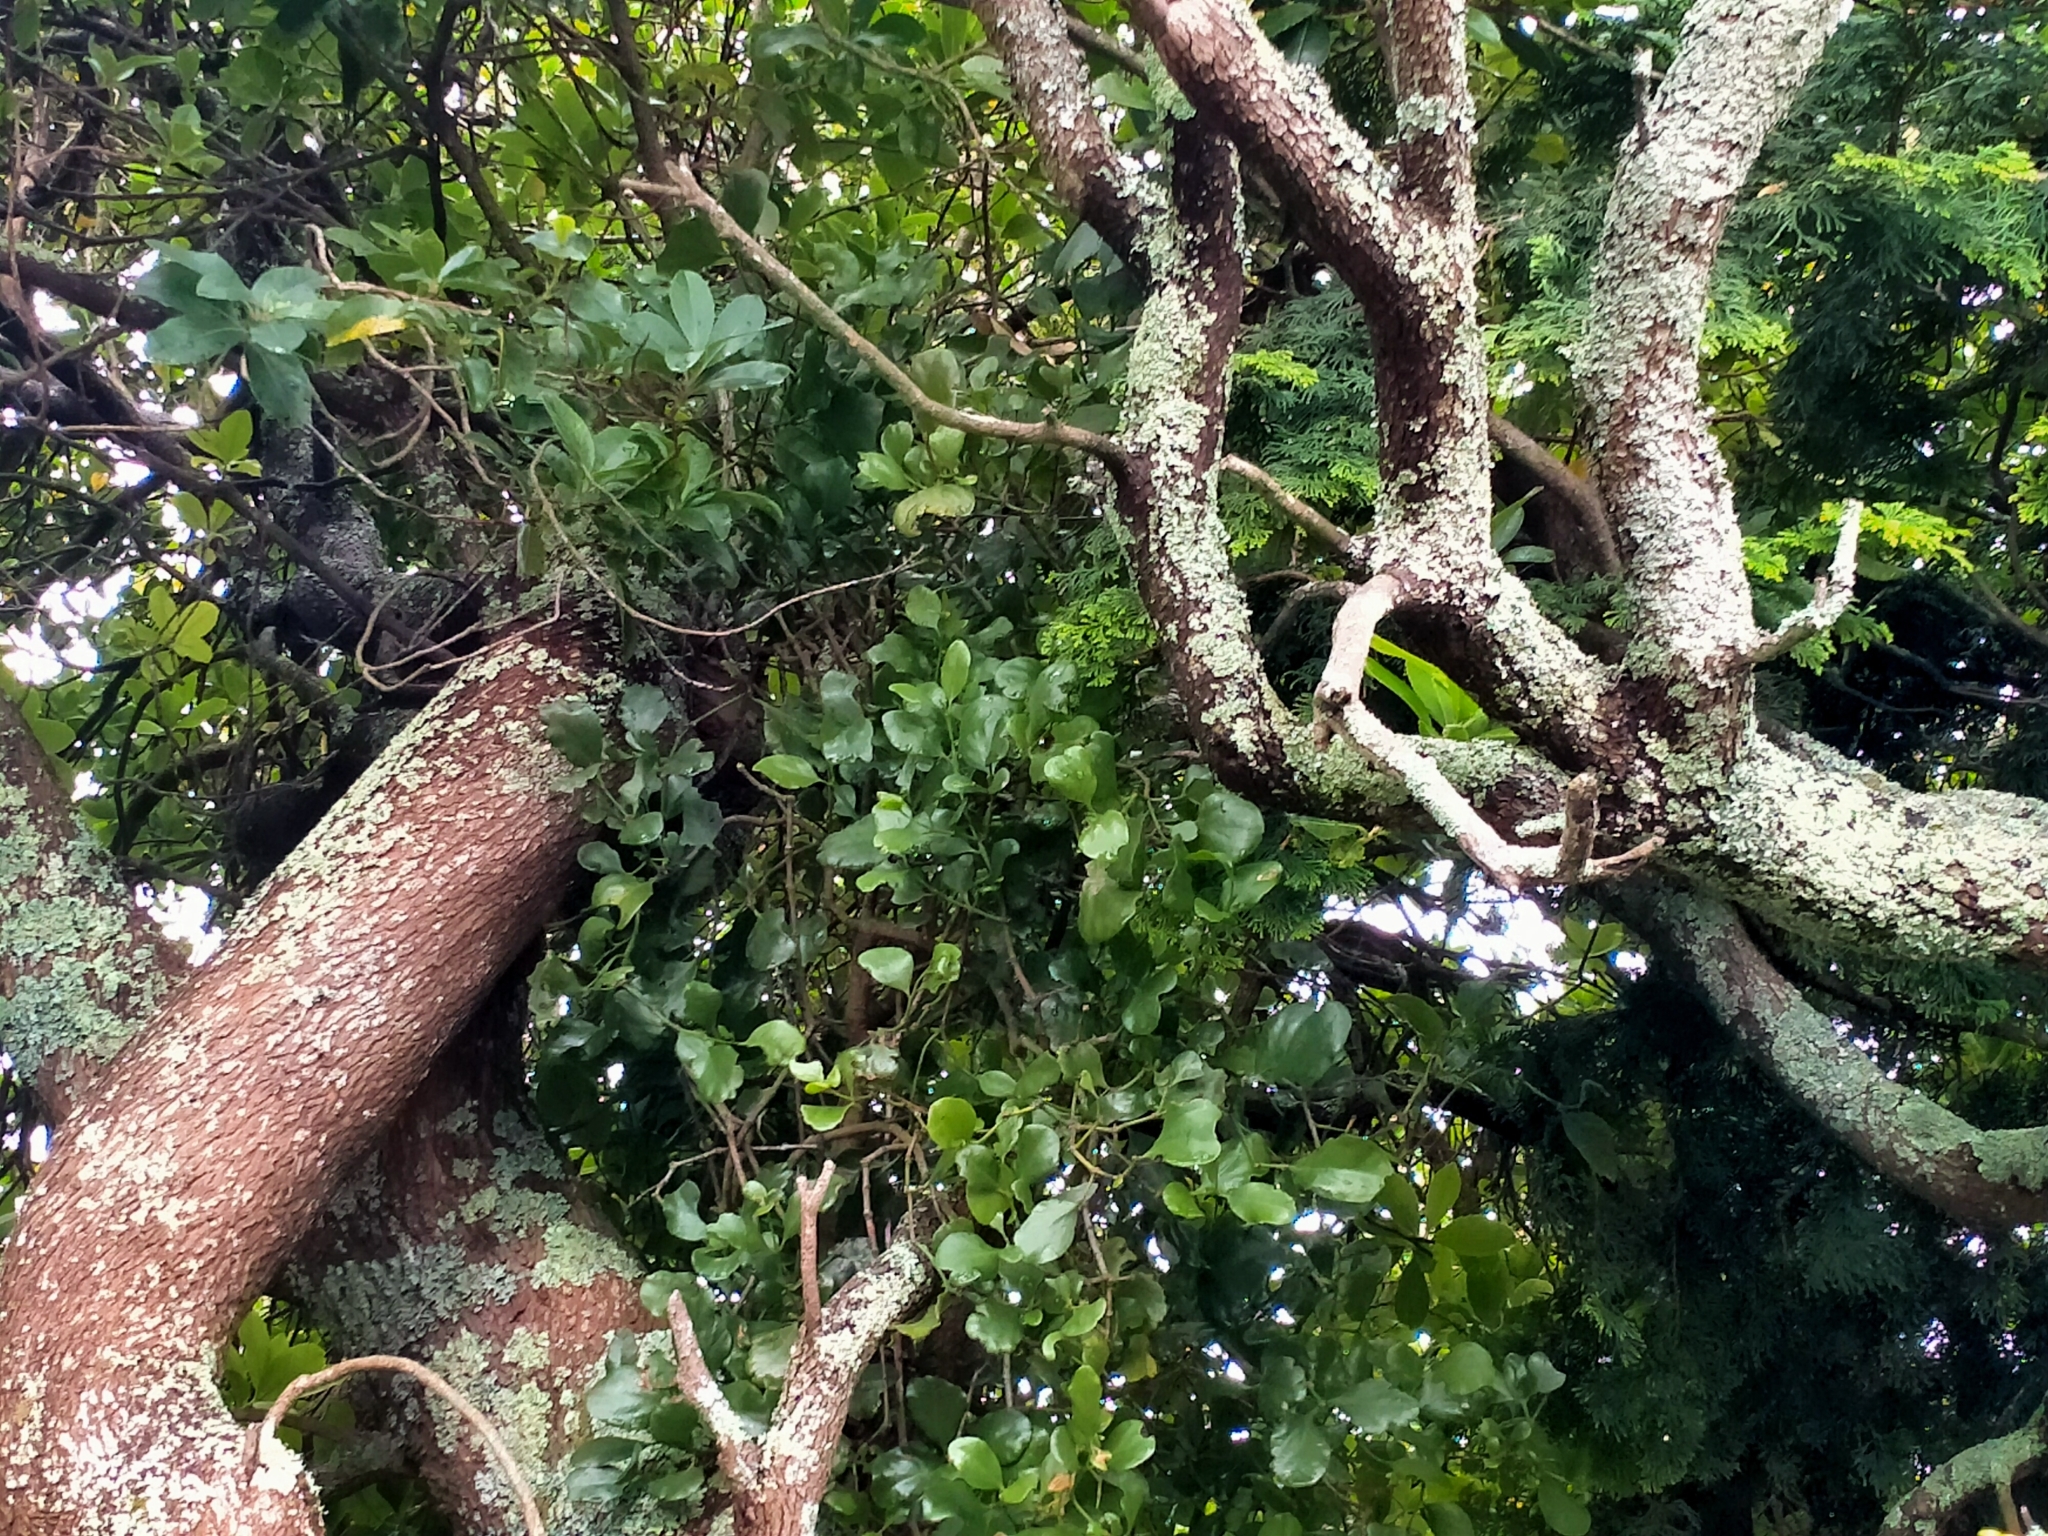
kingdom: Plantae
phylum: Tracheophyta
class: Magnoliopsida
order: Santalales
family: Loranthaceae
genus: Ileostylus
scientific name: Ileostylus micranthus
